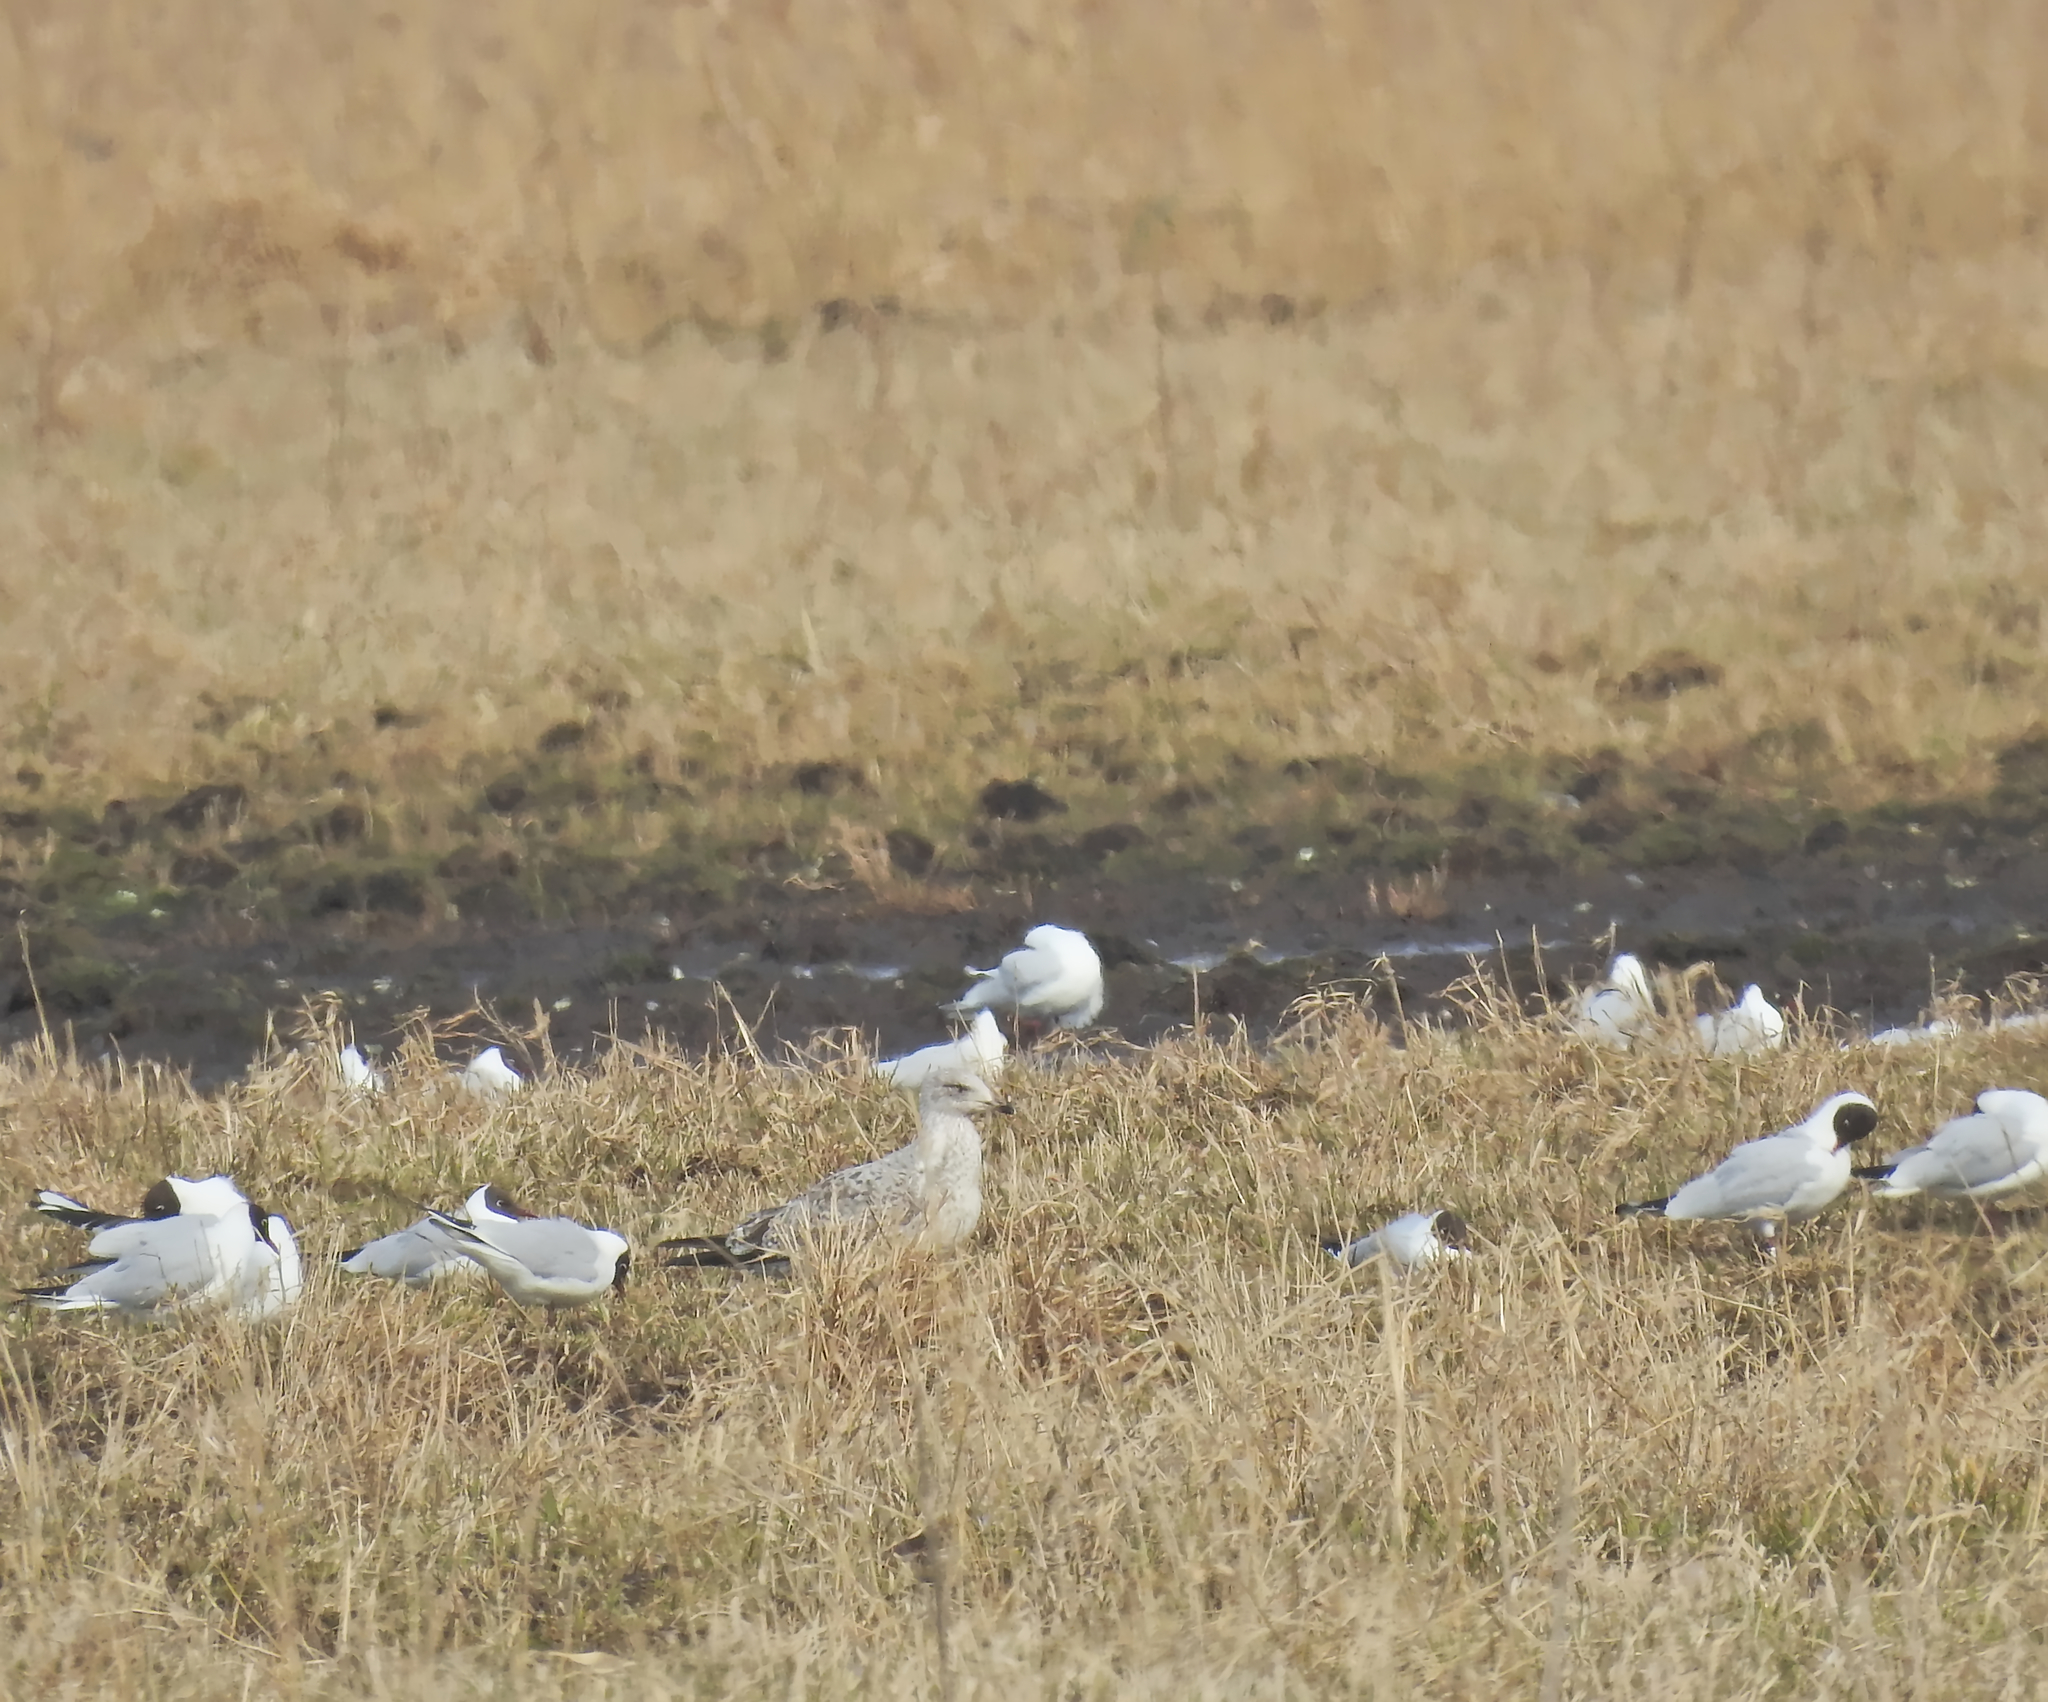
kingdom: Animalia
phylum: Chordata
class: Aves
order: Charadriiformes
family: Laridae
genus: Chroicocephalus
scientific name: Chroicocephalus ridibundus
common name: Black-headed gull
